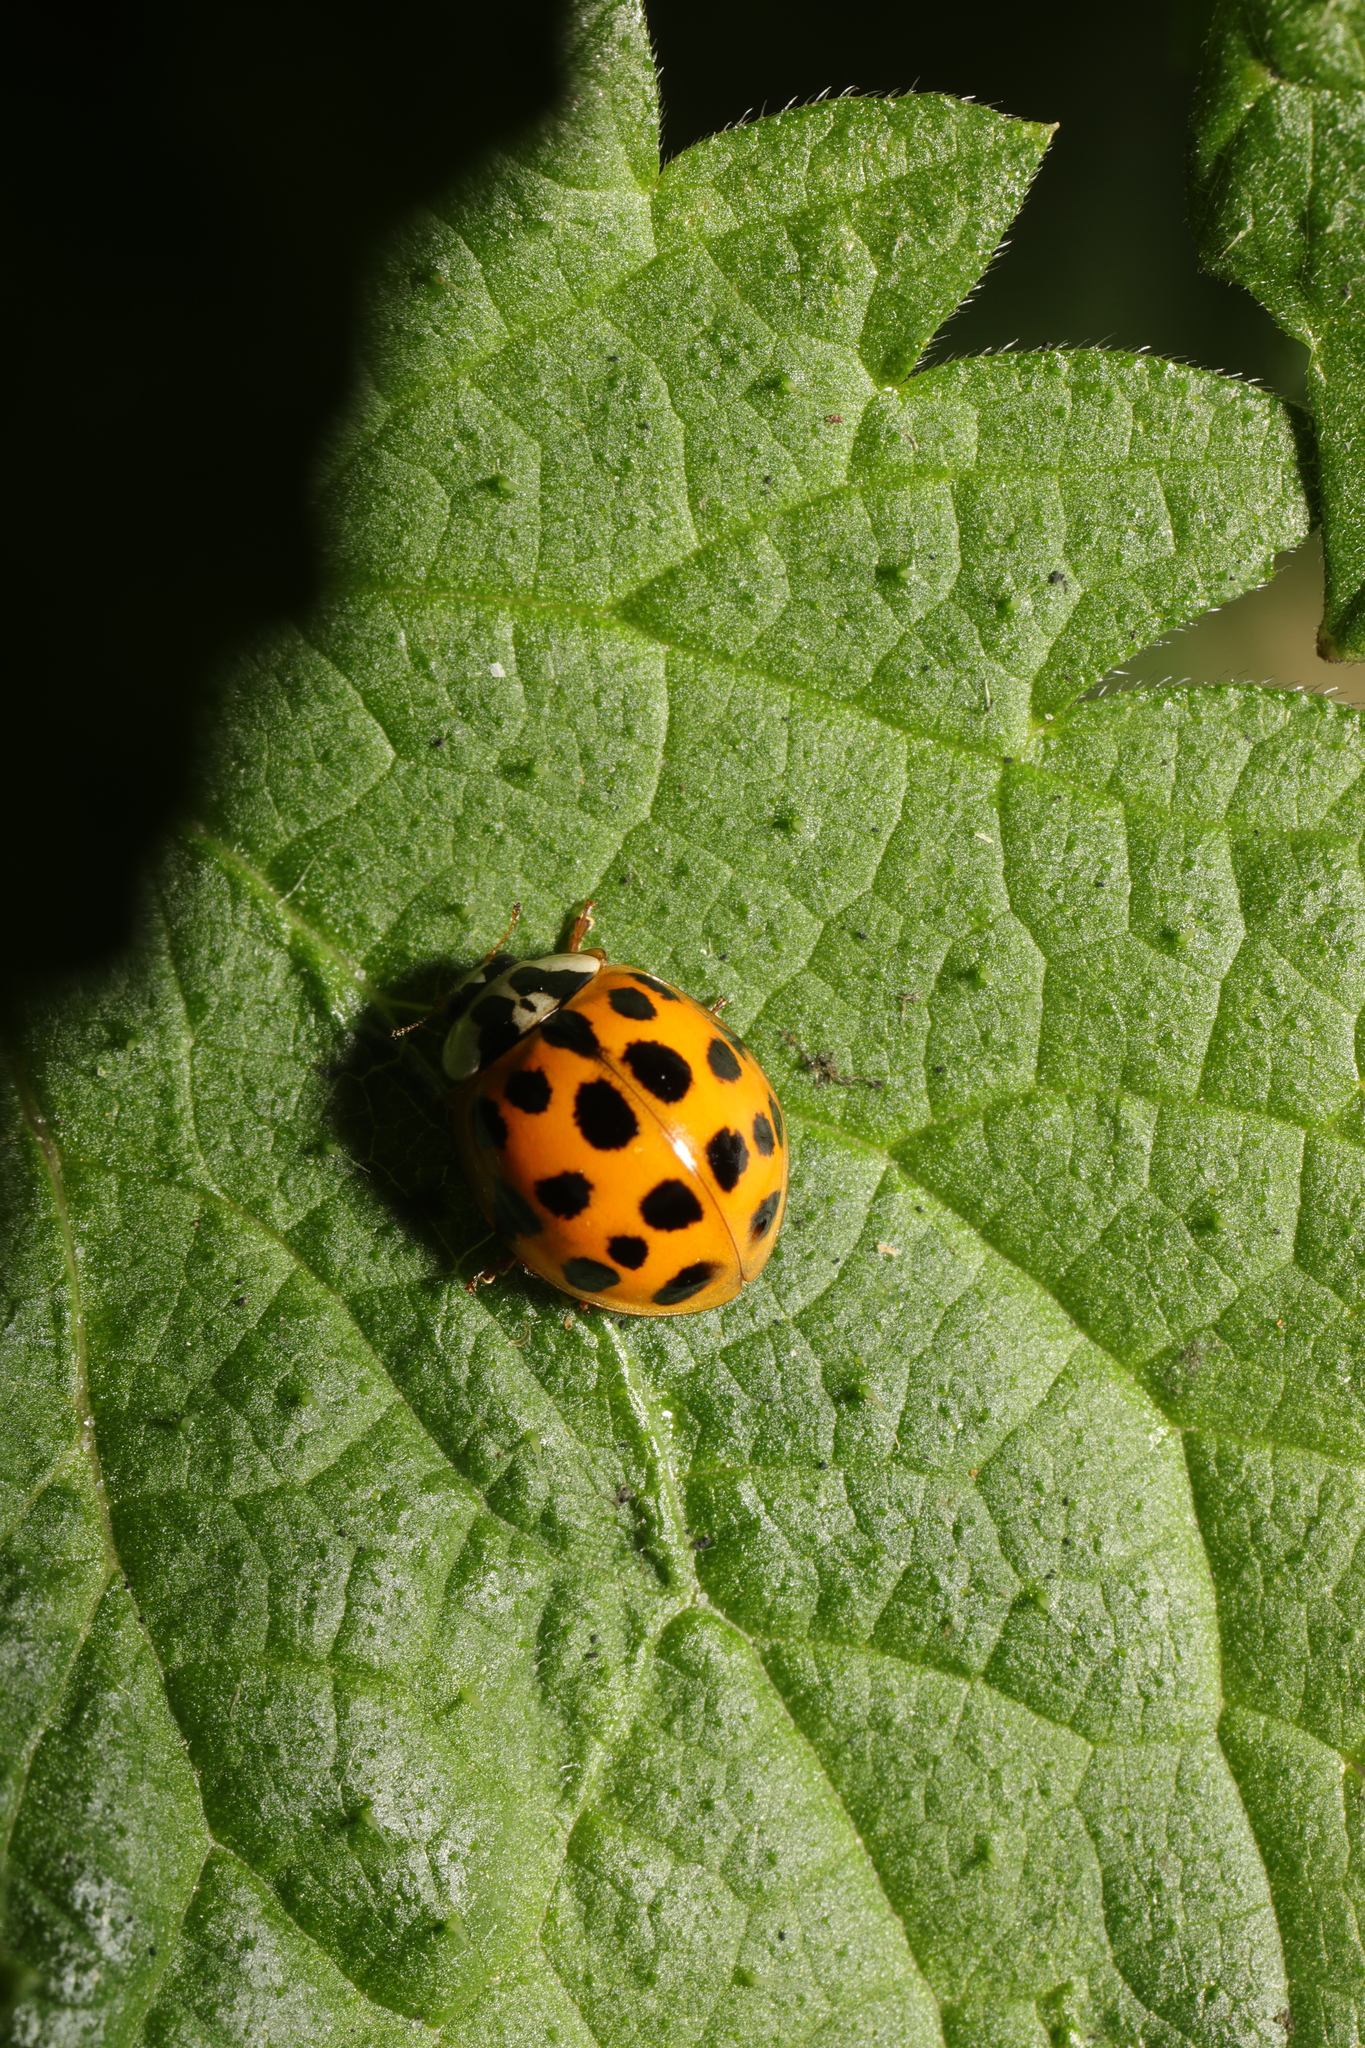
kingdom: Animalia
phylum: Arthropoda
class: Insecta
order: Coleoptera
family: Coccinellidae
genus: Harmonia
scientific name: Harmonia axyridis
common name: Harlequin ladybird
